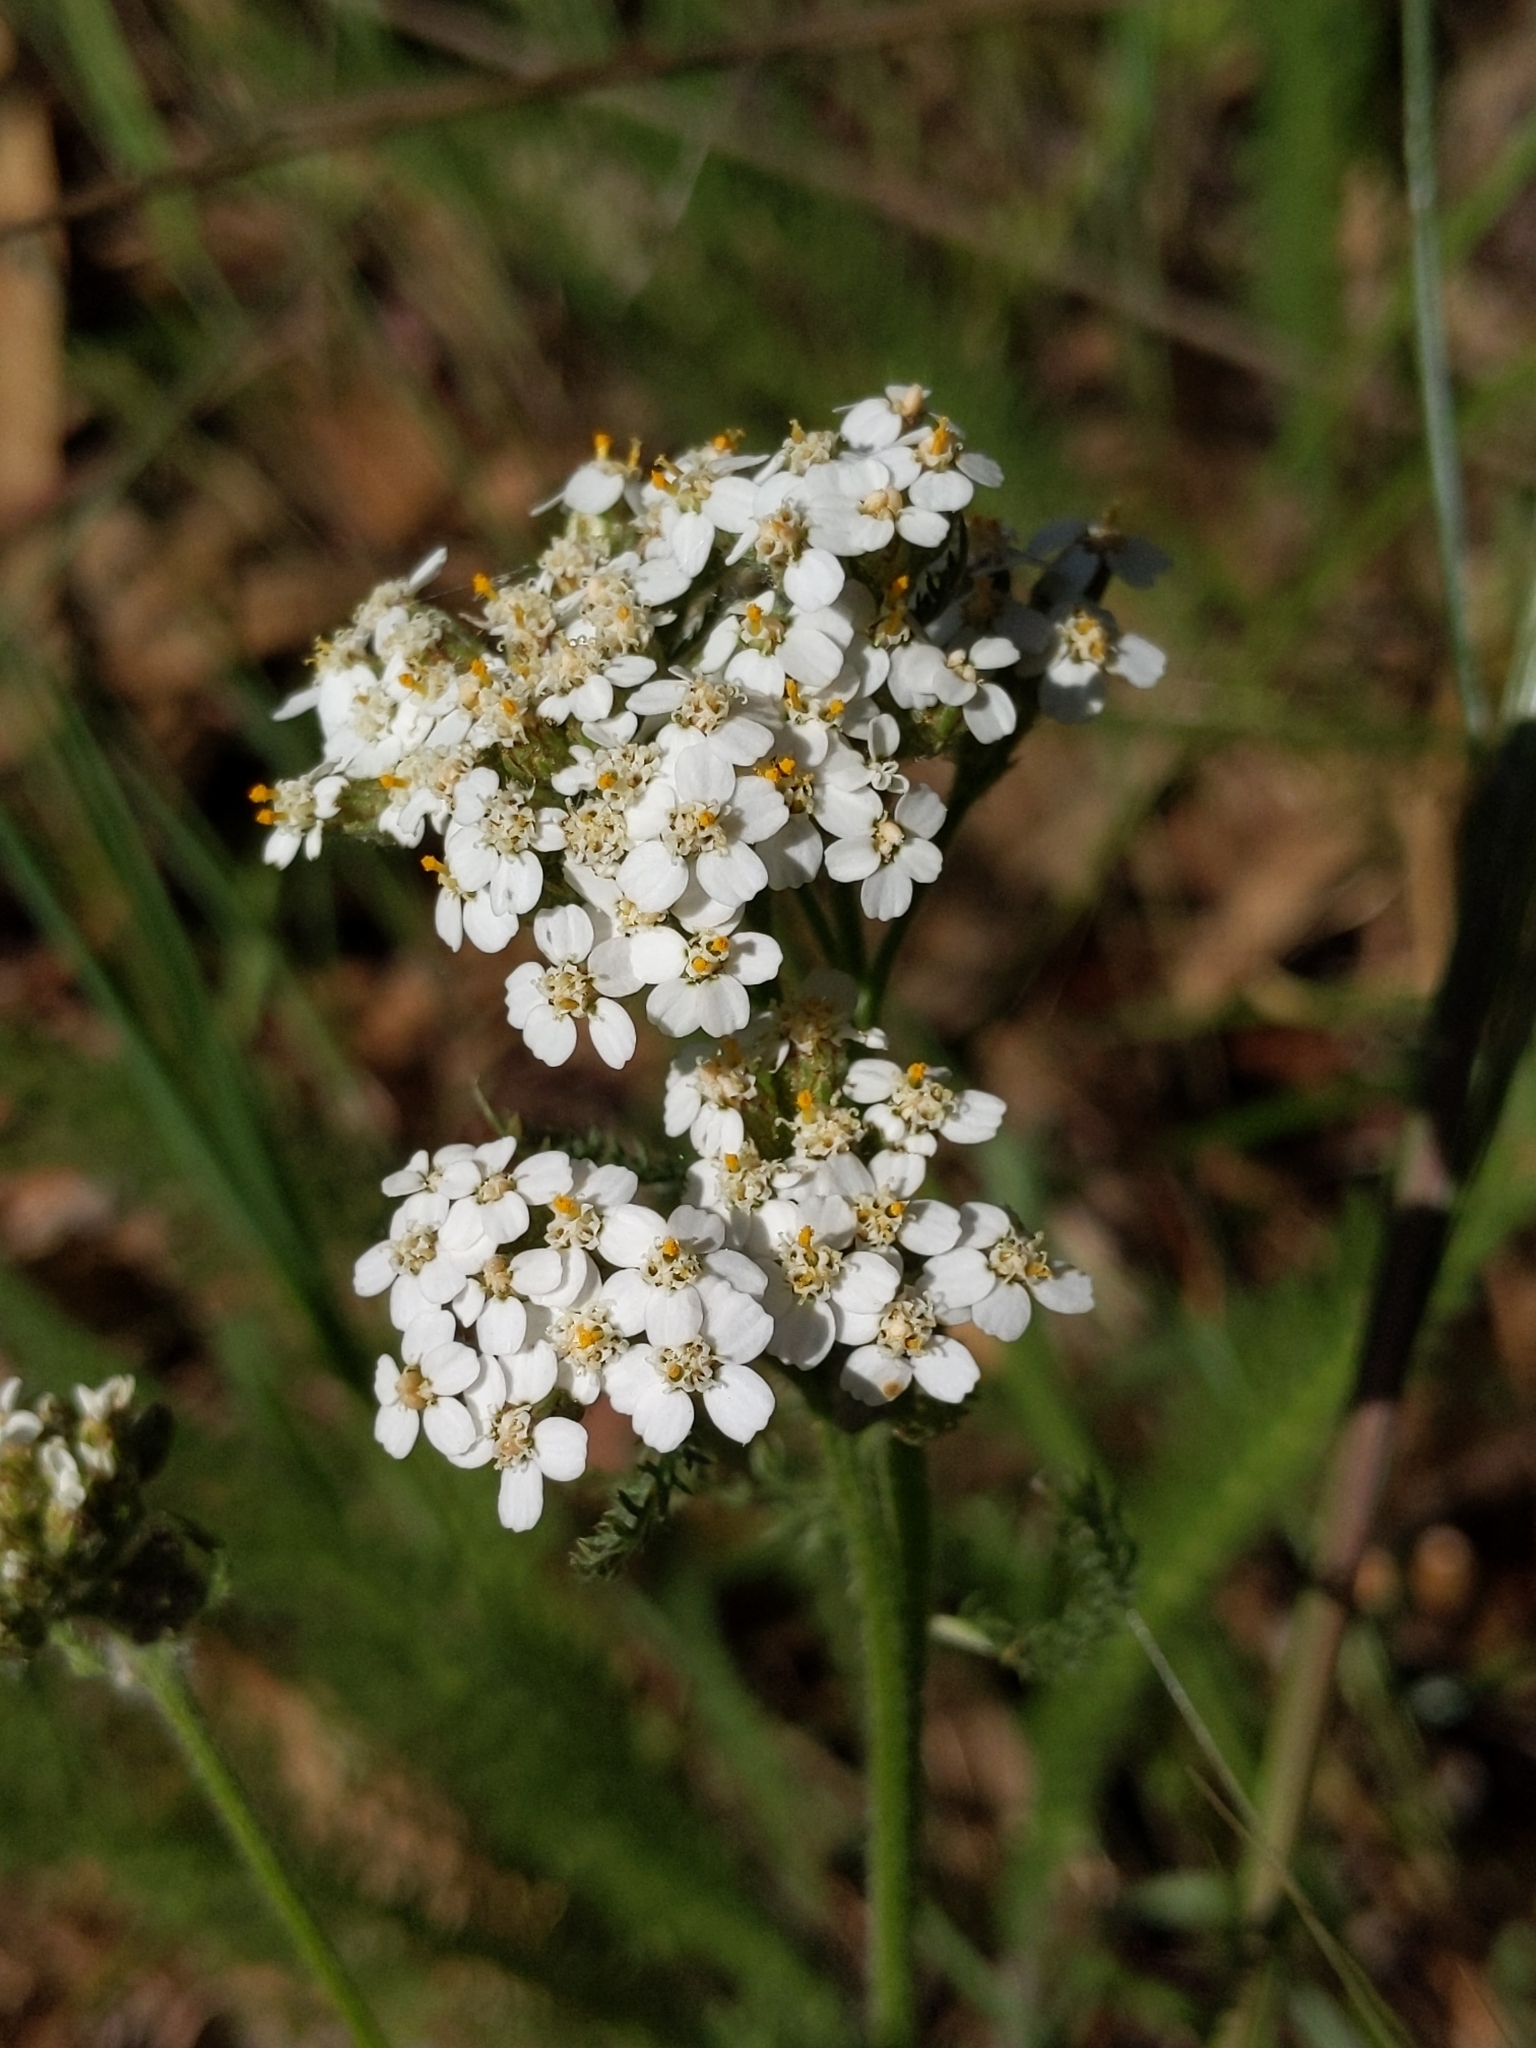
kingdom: Plantae
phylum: Tracheophyta
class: Magnoliopsida
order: Asterales
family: Asteraceae
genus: Achillea
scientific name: Achillea millefolium
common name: Yarrow
